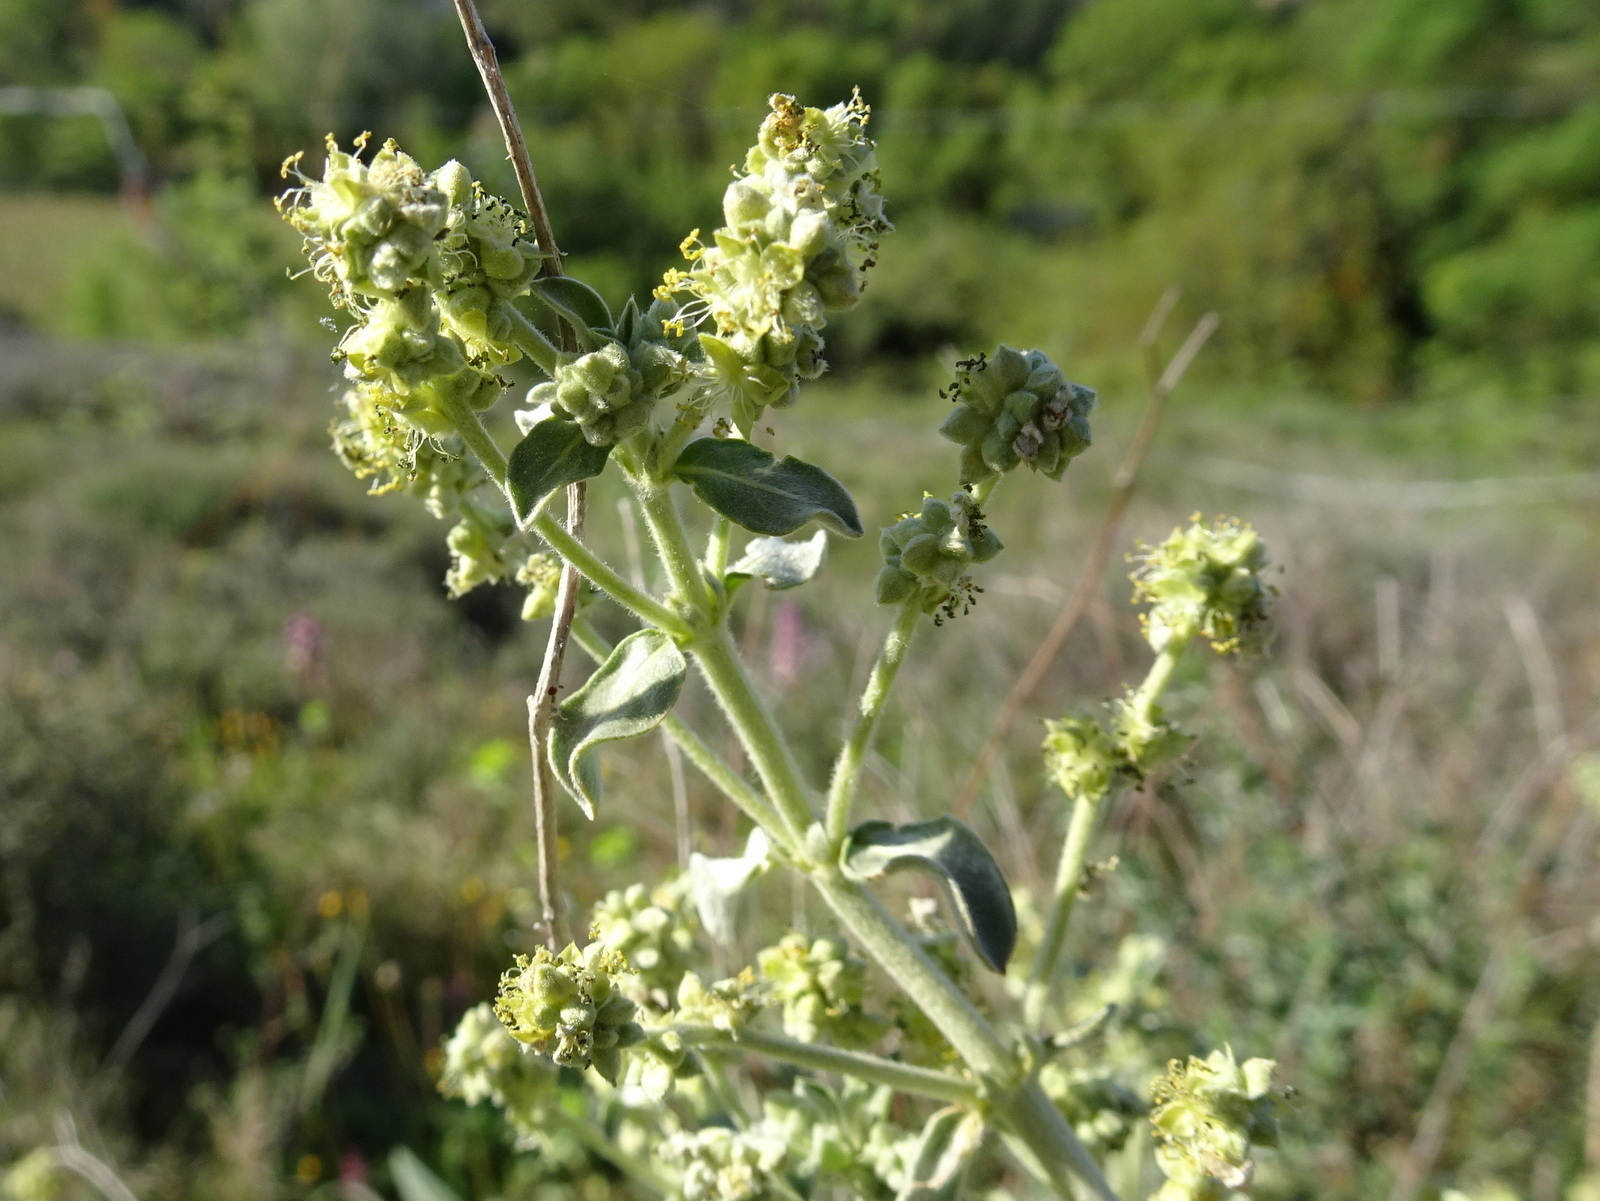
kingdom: Plantae
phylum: Tracheophyta
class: Magnoliopsida
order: Malpighiales
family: Euphorbiaceae
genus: Mercurialis
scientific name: Mercurialis tomentosa
